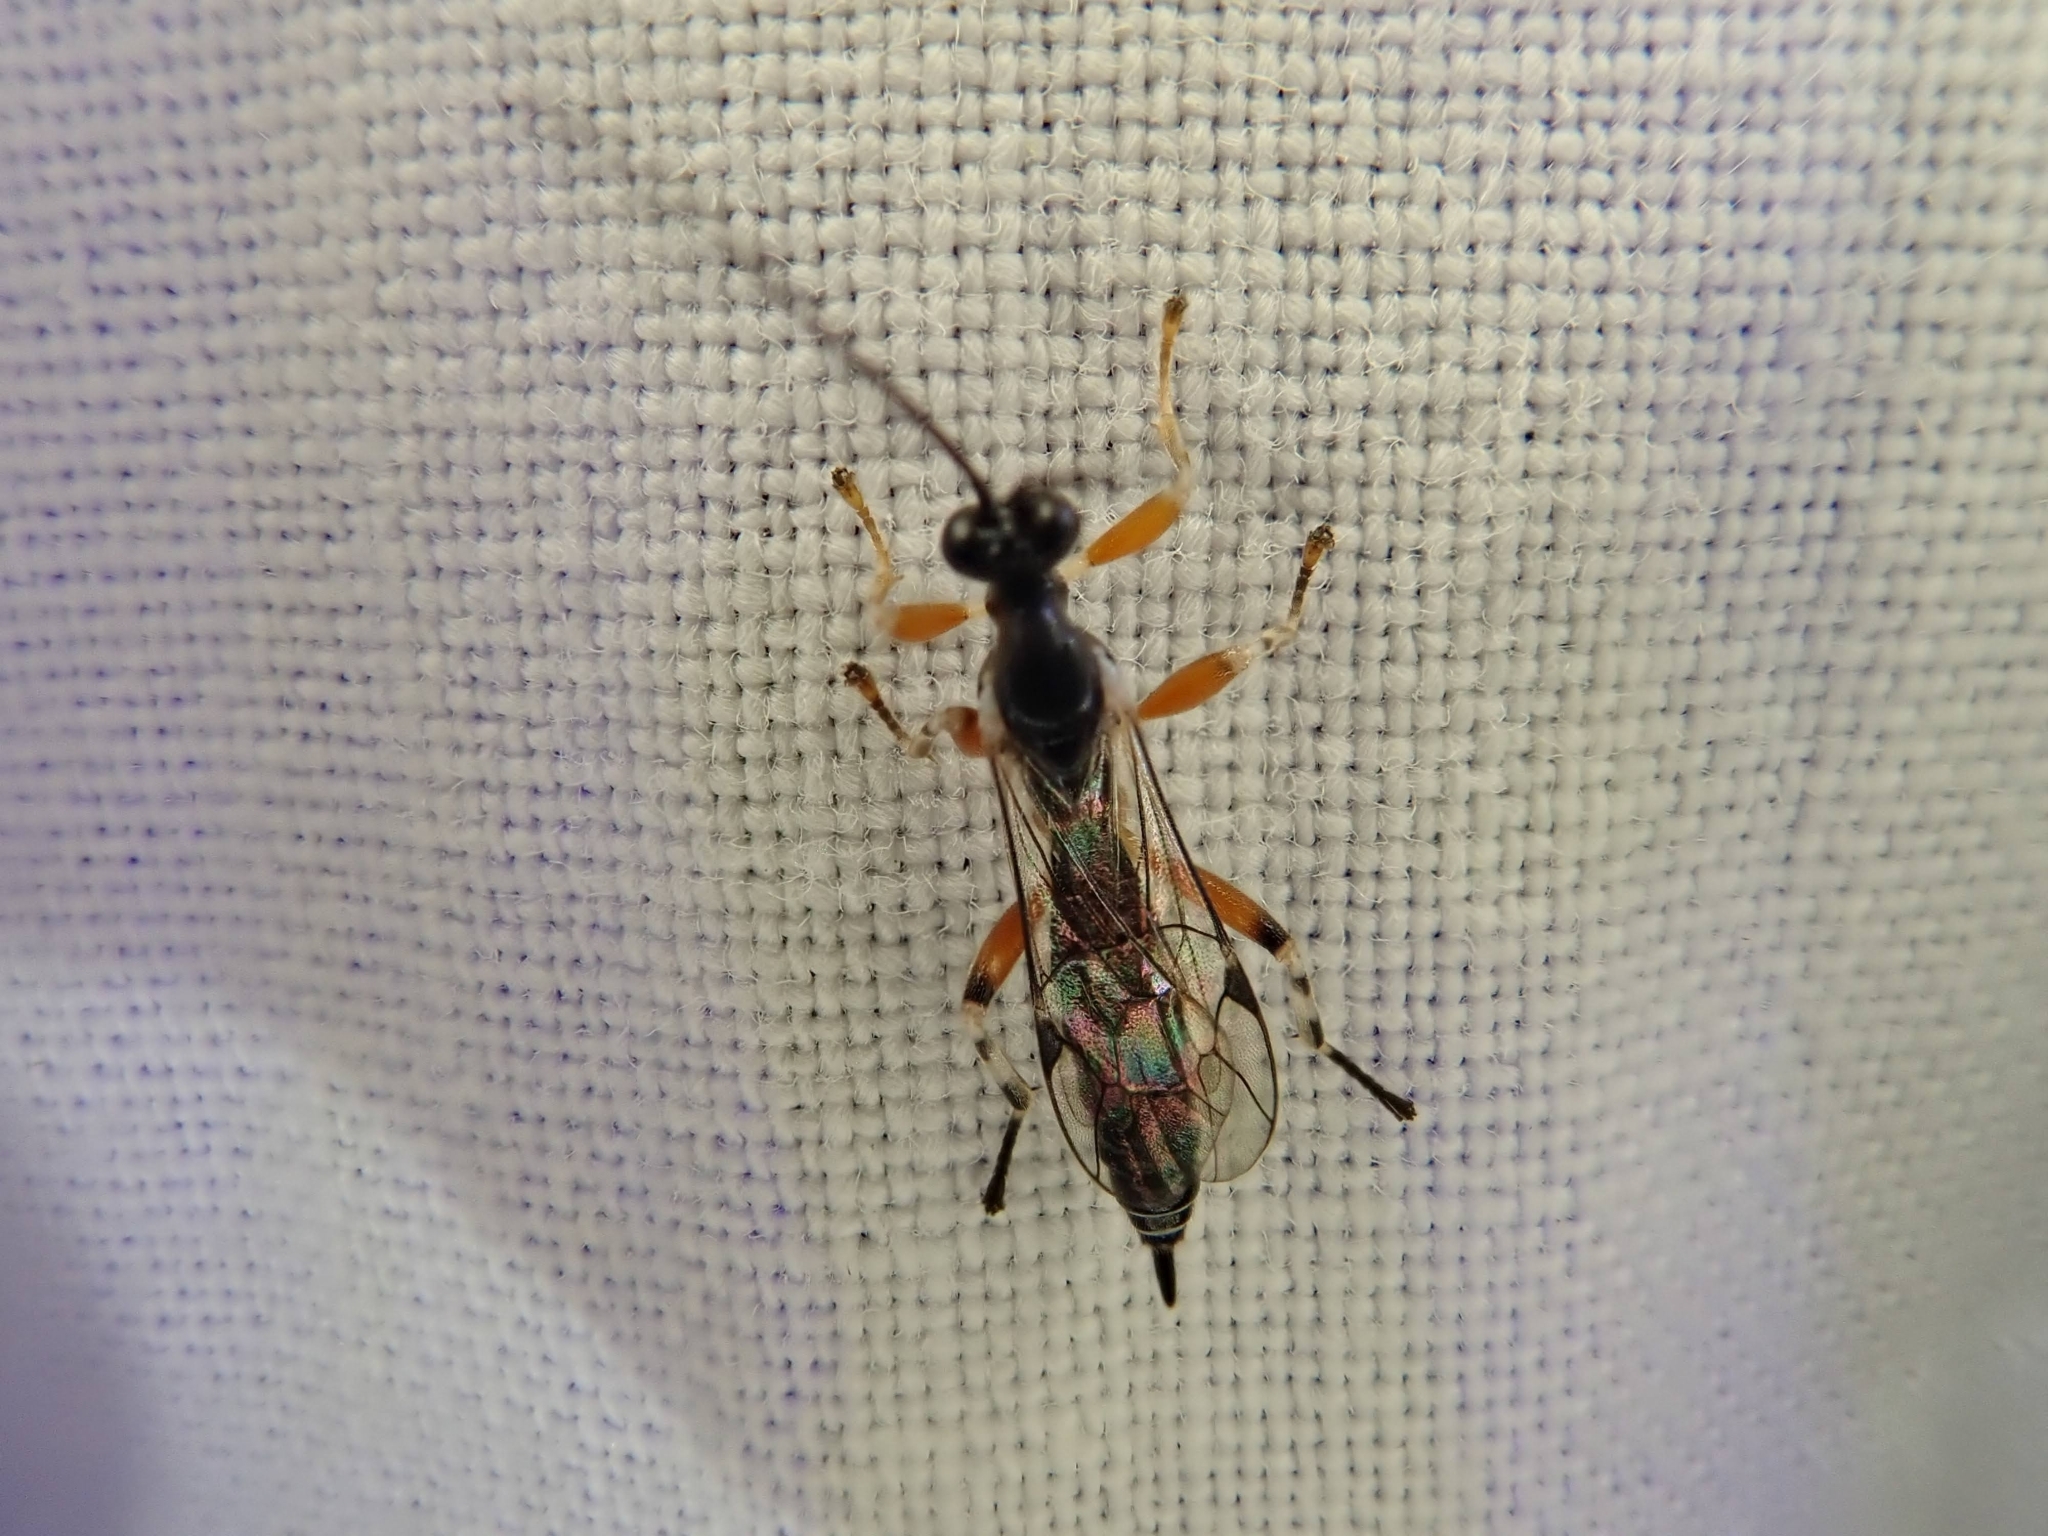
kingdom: Animalia
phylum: Arthropoda
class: Insecta
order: Hymenoptera
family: Ichneumonidae
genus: Oxyrrhexis
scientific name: Oxyrrhexis carbonator
